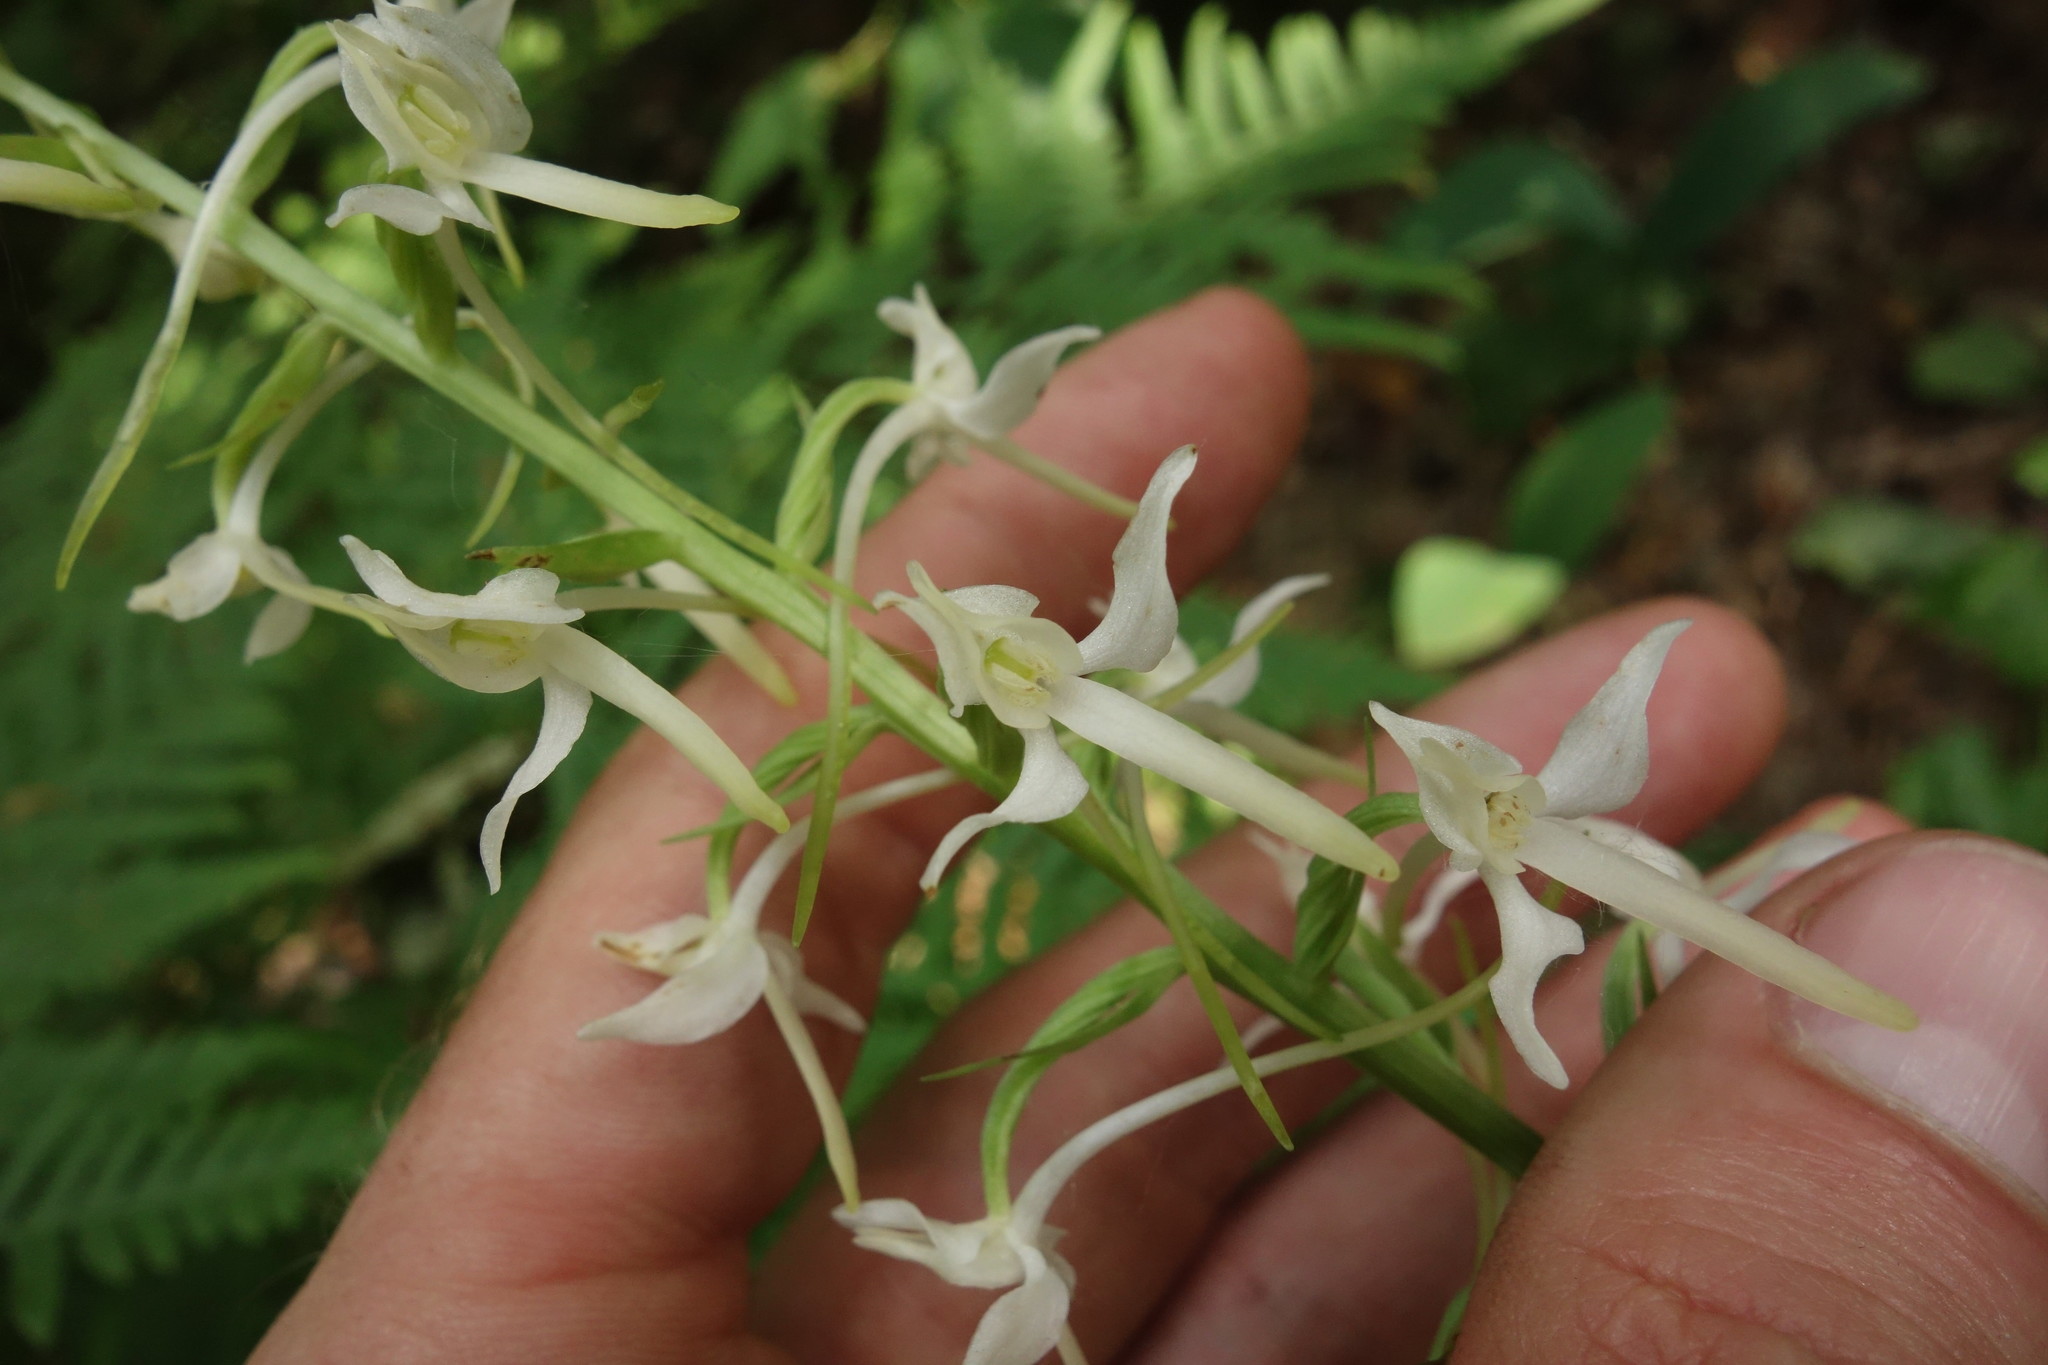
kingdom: Plantae
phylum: Tracheophyta
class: Liliopsida
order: Asparagales
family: Orchidaceae
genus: Platanthera
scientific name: Platanthera bifolia
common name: Lesser butterfly-orchid
